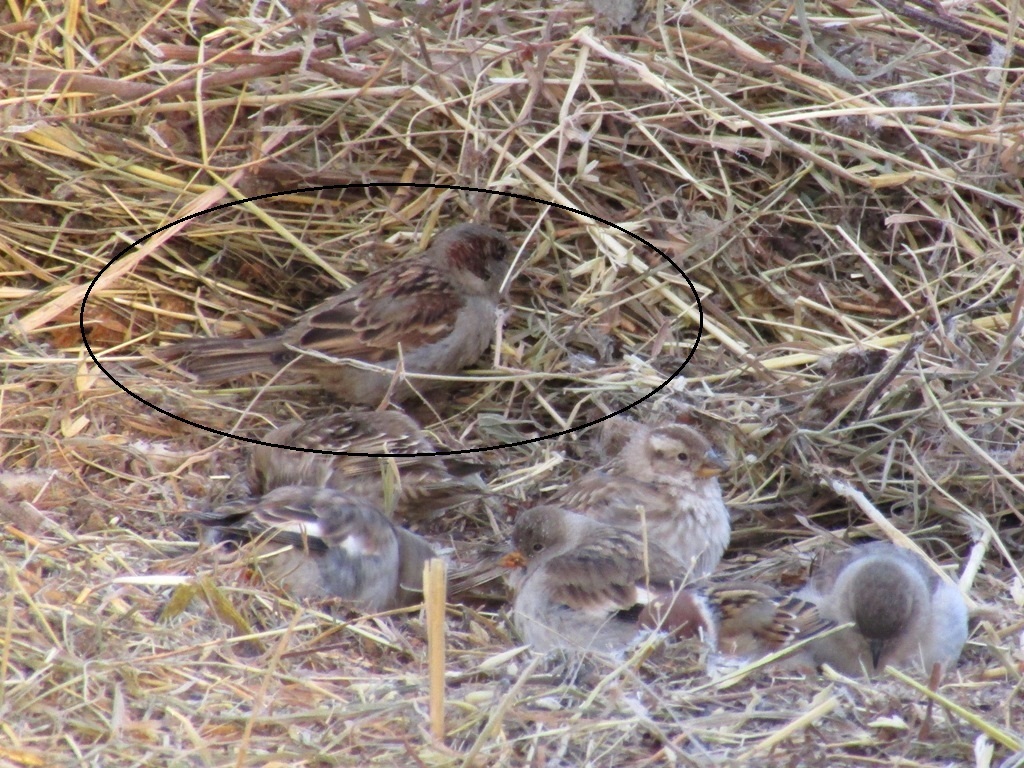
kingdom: Animalia
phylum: Chordata
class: Aves
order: Passeriformes
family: Passeridae
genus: Passer
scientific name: Passer domesticus
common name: House sparrow
